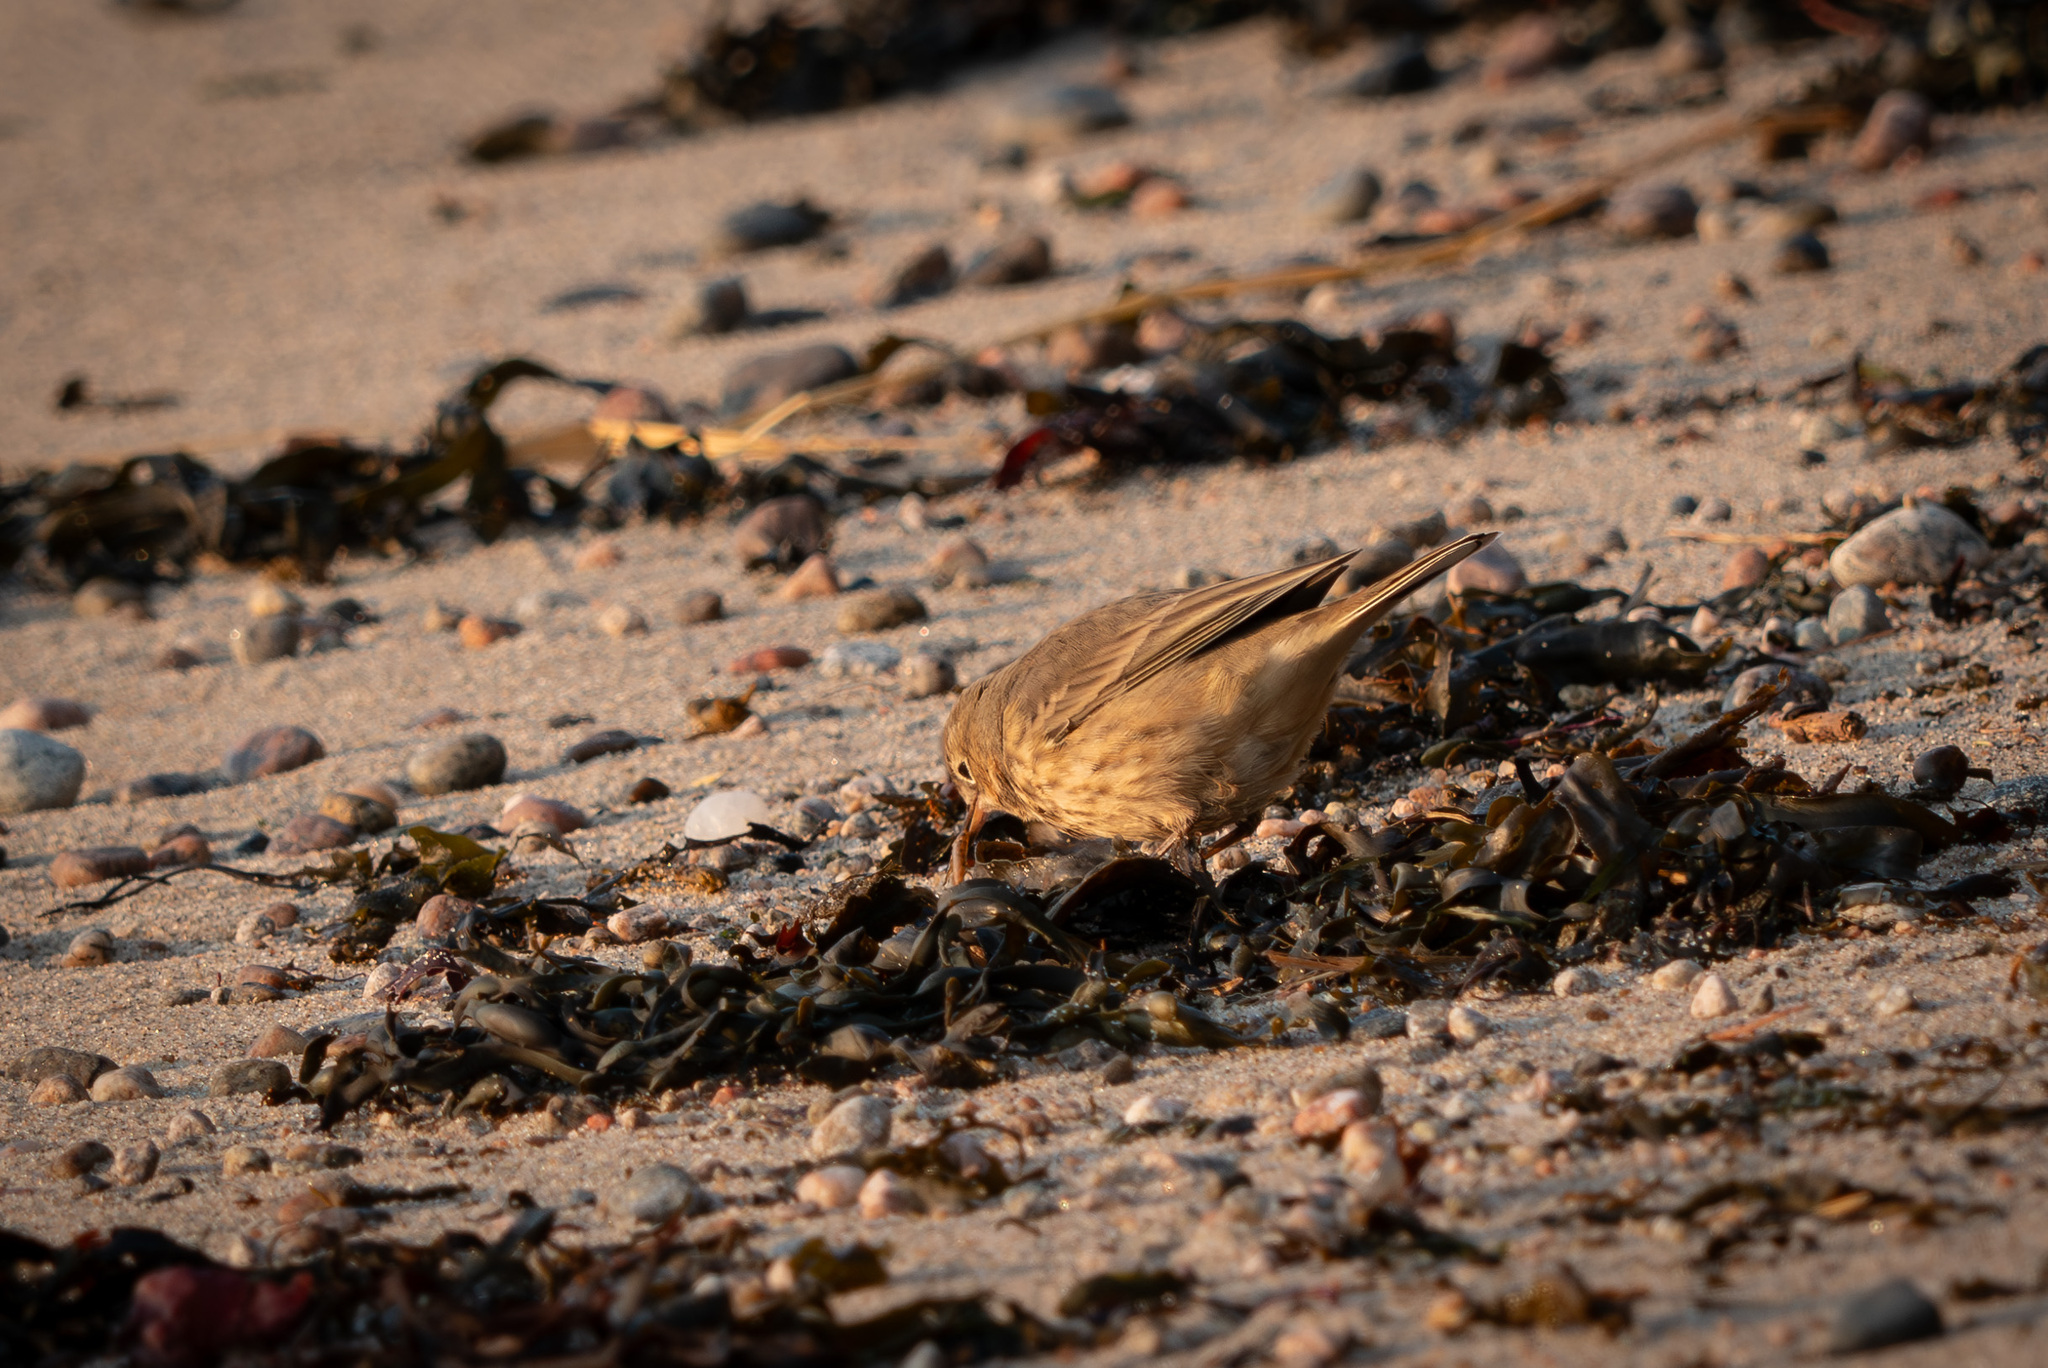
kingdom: Animalia
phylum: Chordata
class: Aves
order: Passeriformes
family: Motacillidae
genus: Anthus
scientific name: Anthus rubescens
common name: Buff-bellied pipit
